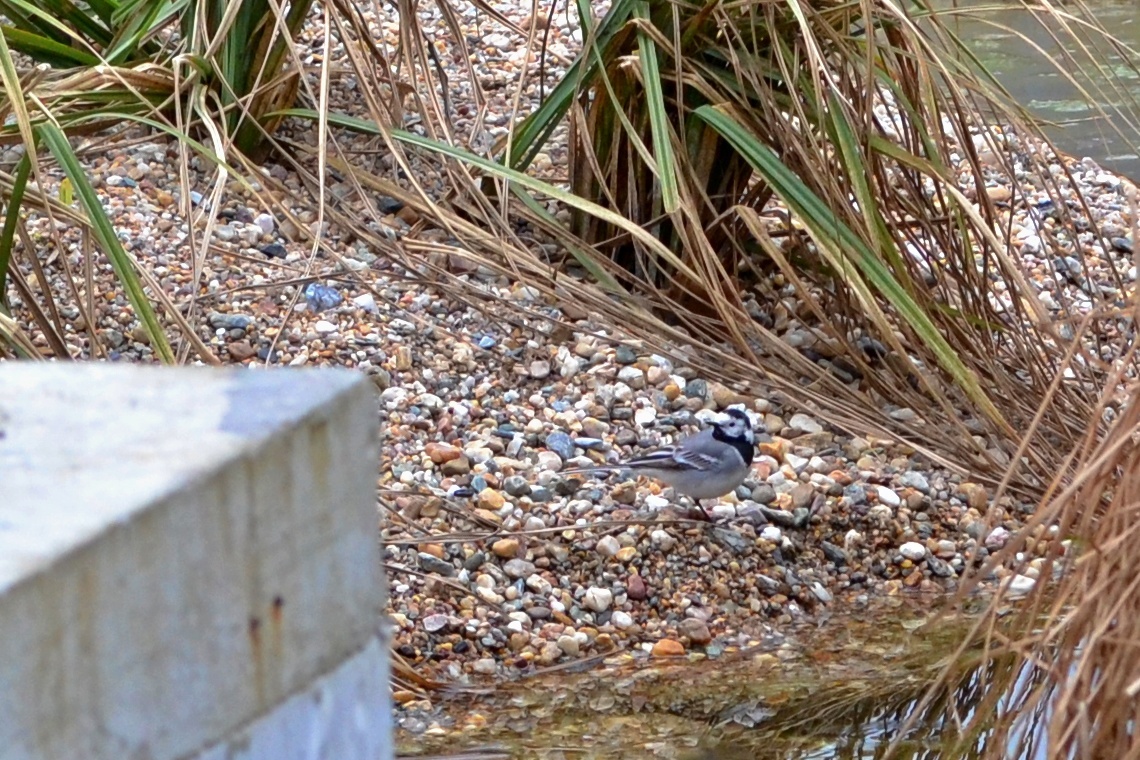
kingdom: Animalia
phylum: Chordata
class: Aves
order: Passeriformes
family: Motacillidae
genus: Motacilla
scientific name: Motacilla alba
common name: White wagtail
